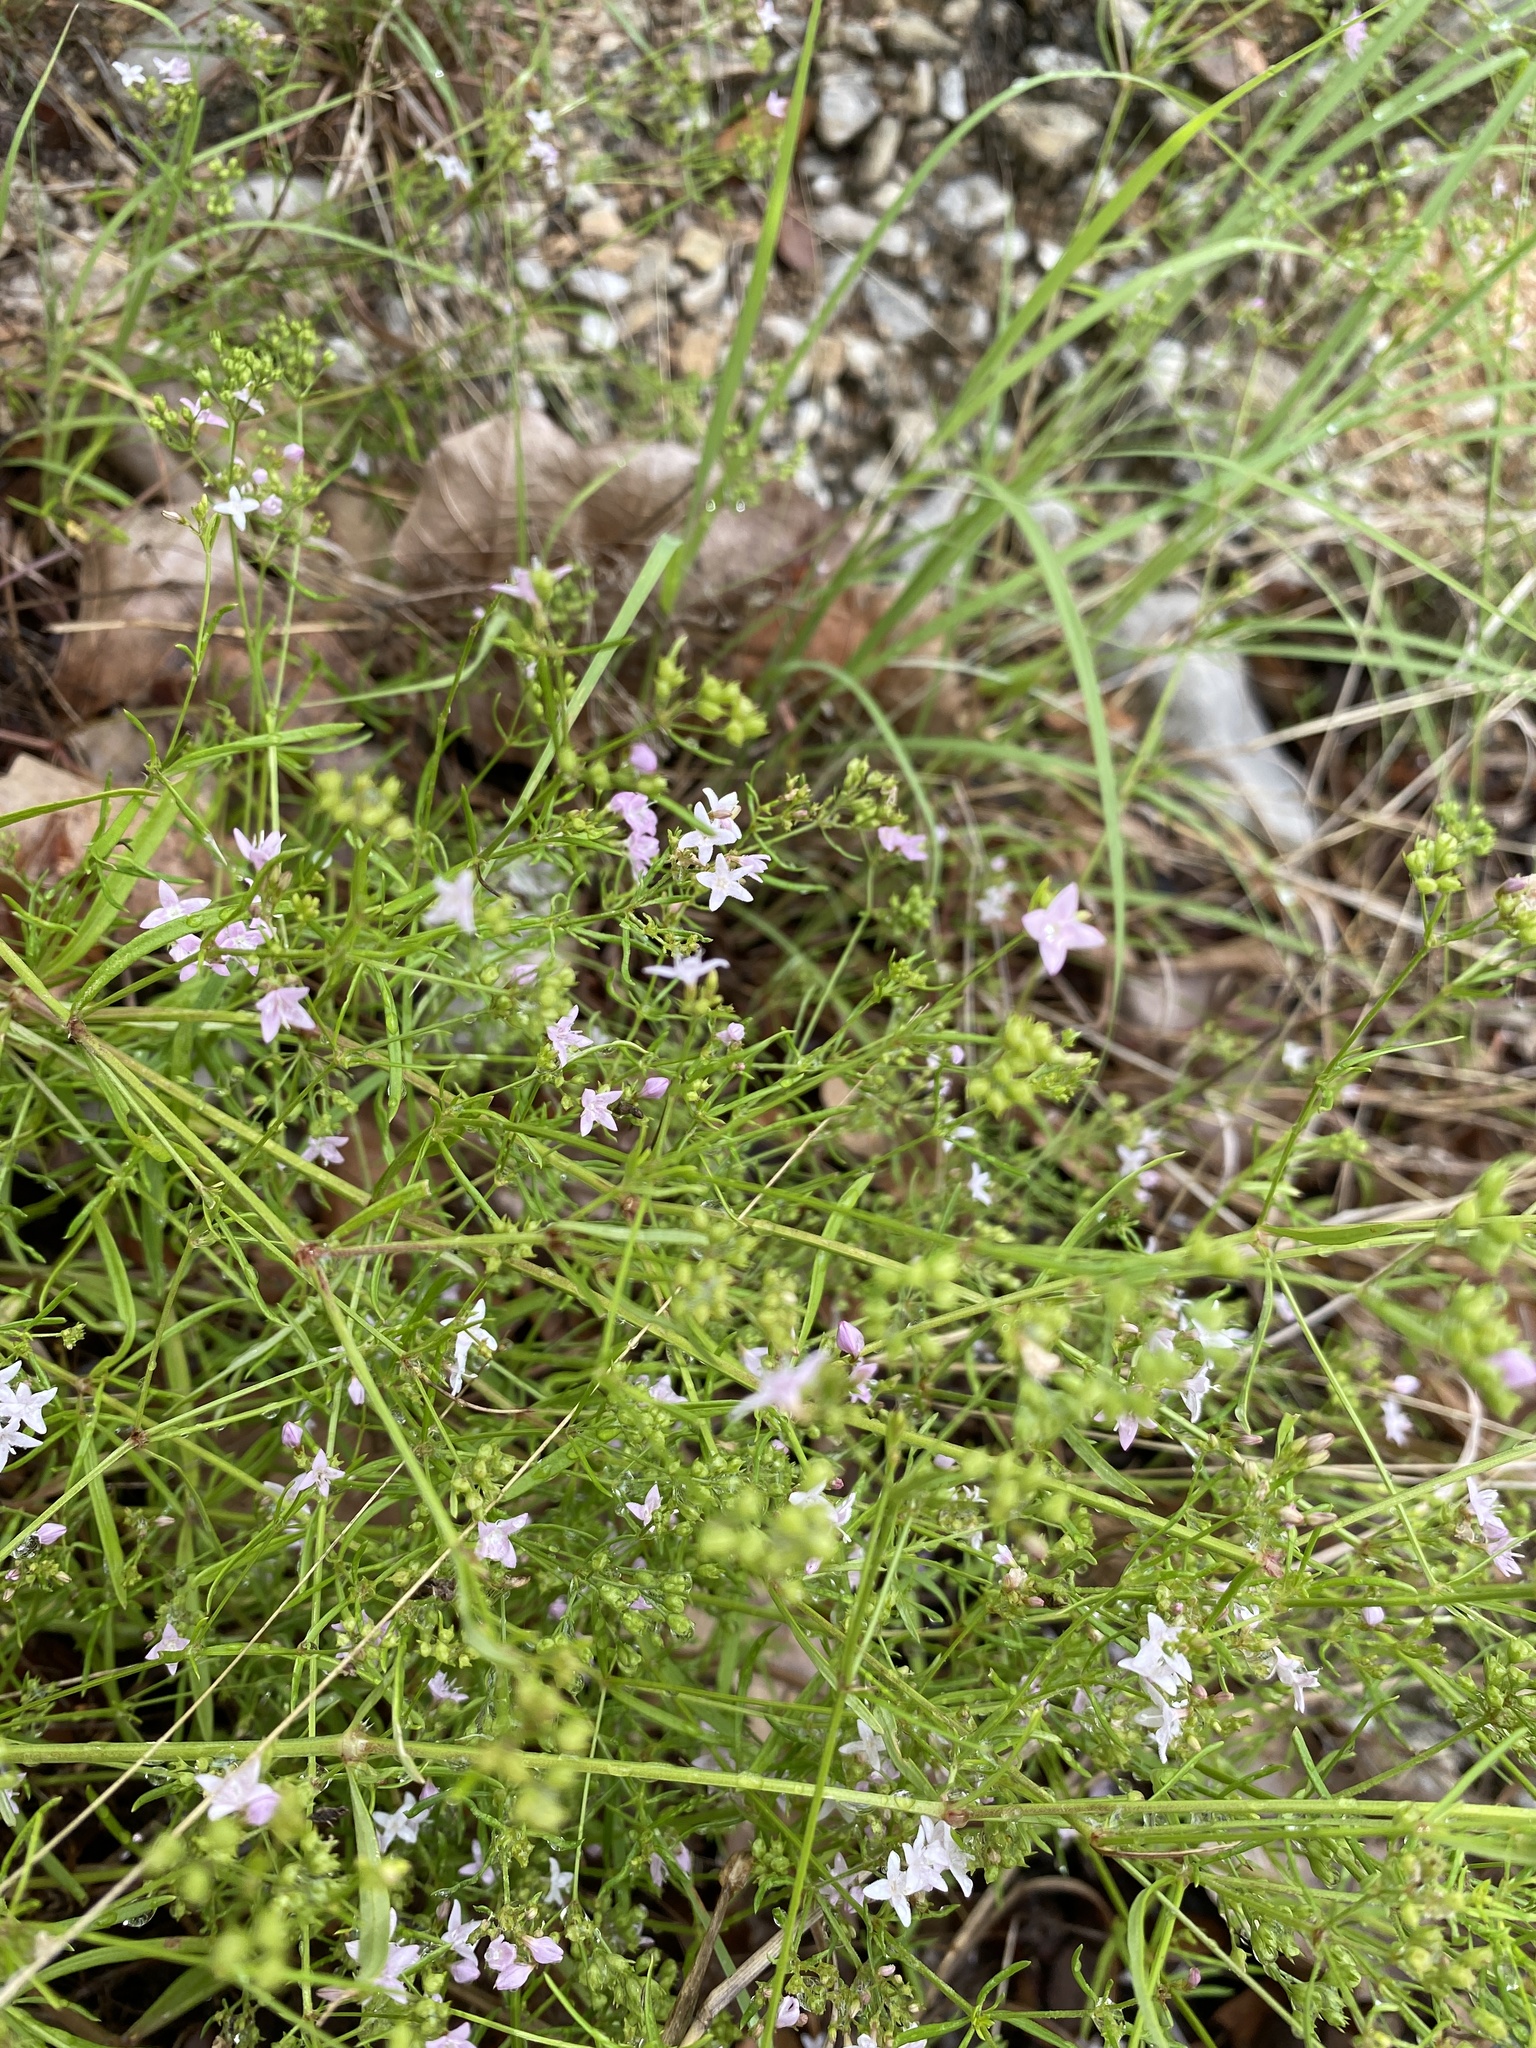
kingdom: Plantae
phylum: Tracheophyta
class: Magnoliopsida
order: Gentianales
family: Rubiaceae
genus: Stenaria
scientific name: Stenaria nigricans
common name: Diamondflowers
